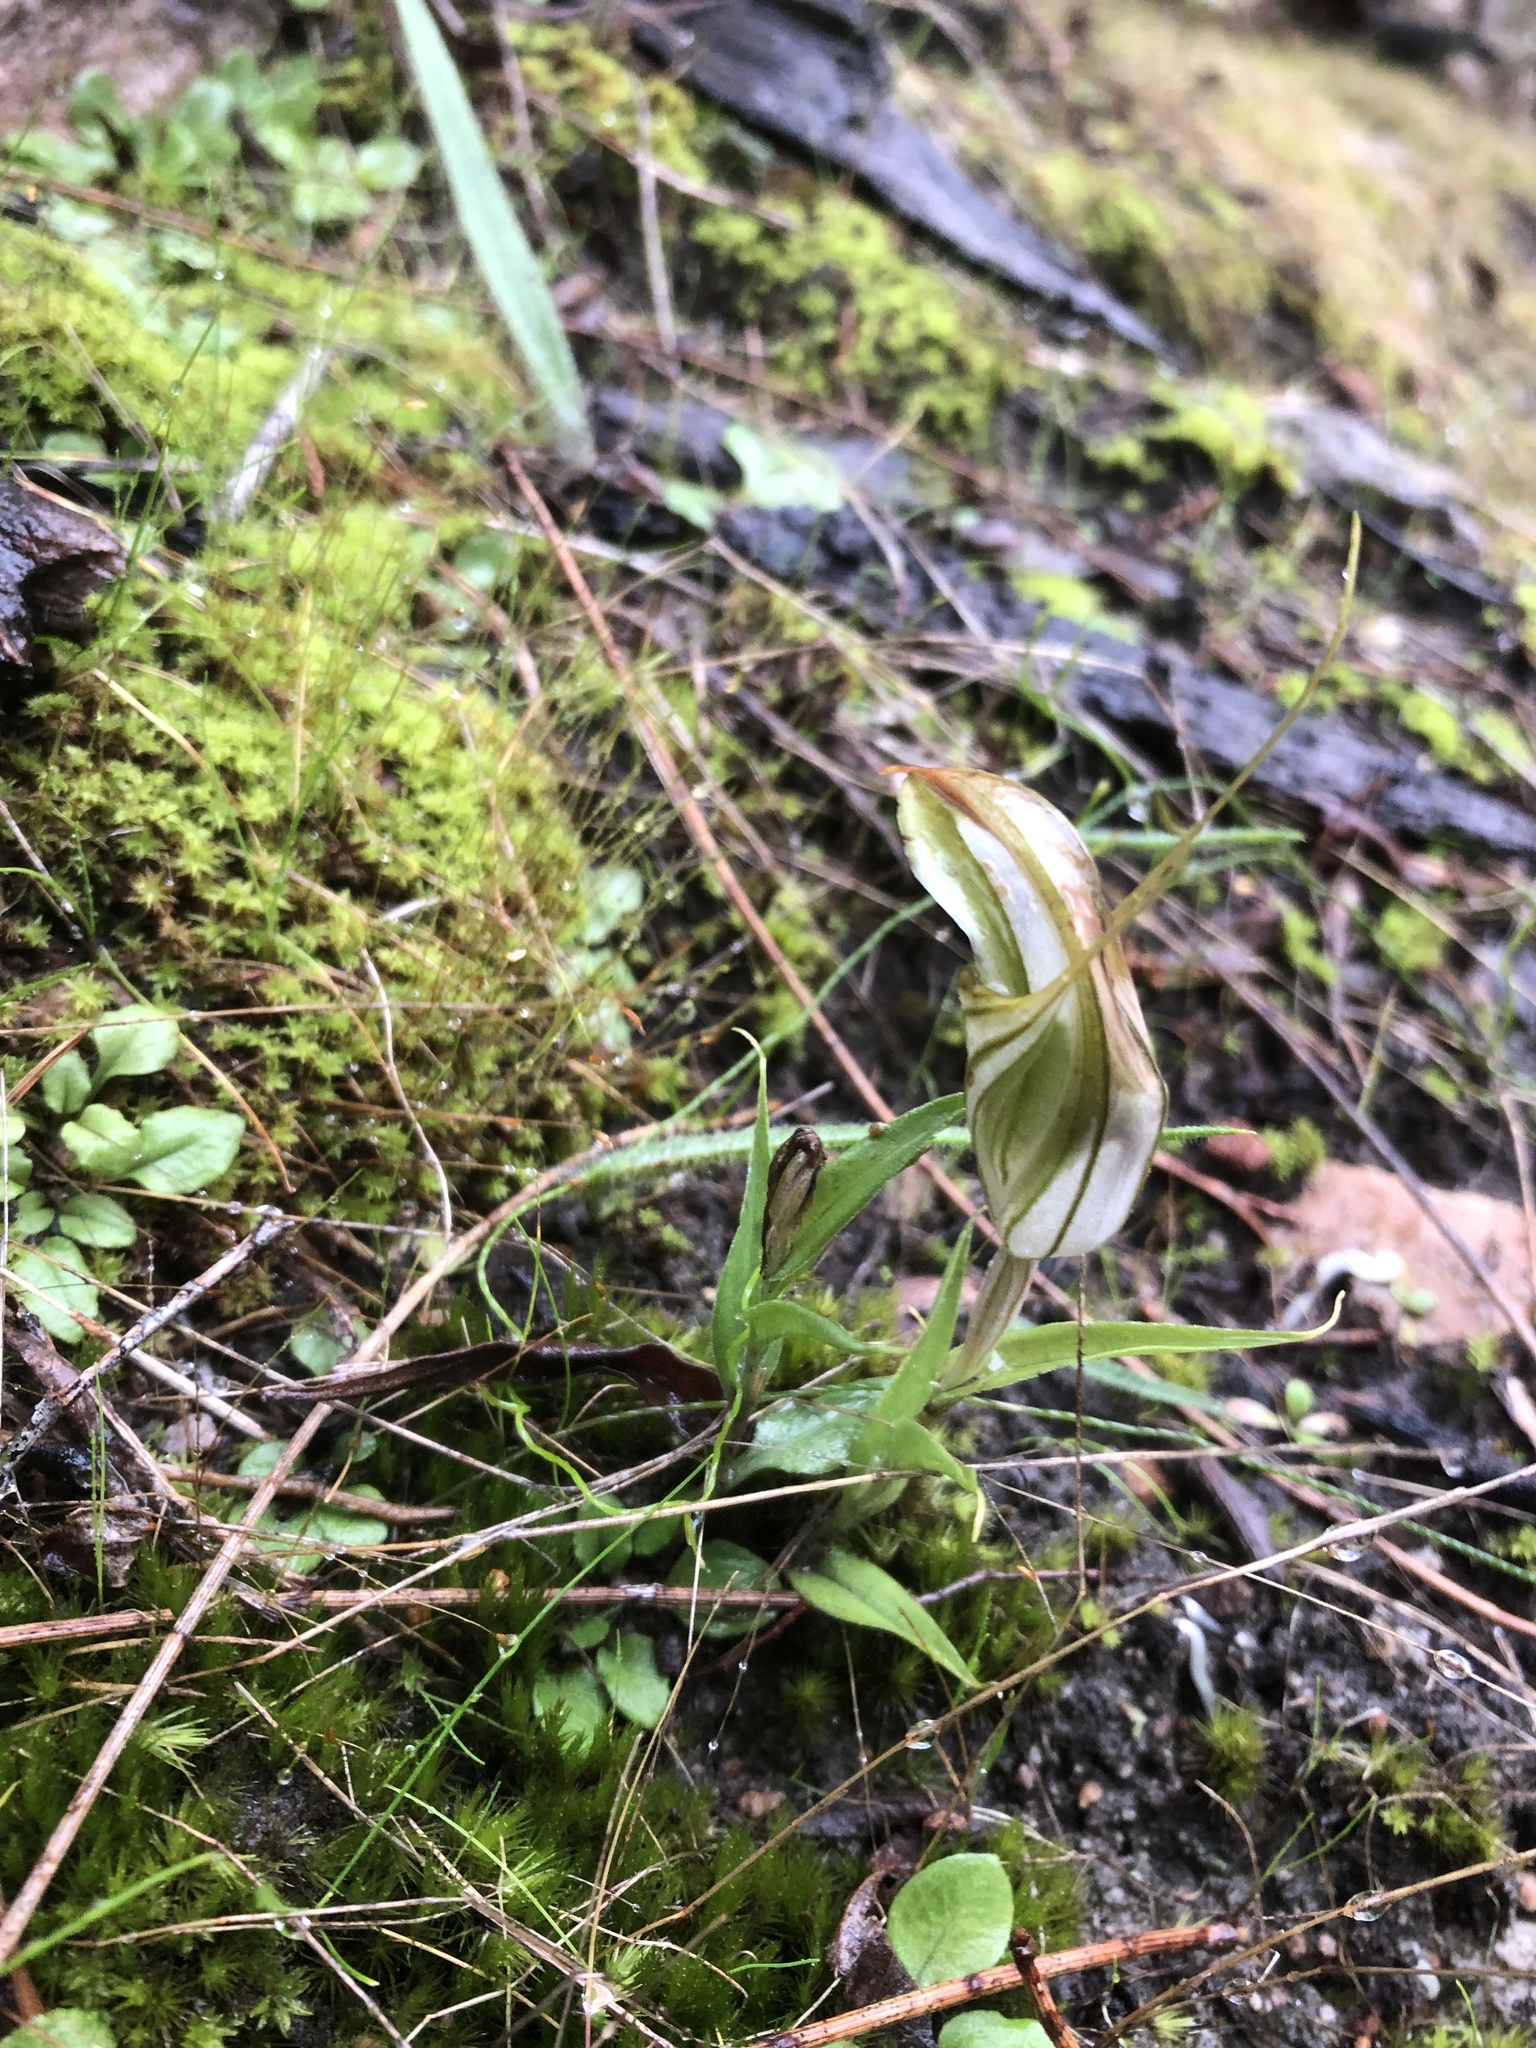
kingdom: Plantae
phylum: Tracheophyta
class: Liliopsida
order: Asparagales
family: Orchidaceae
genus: Pterostylis
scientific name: Pterostylis robusta
